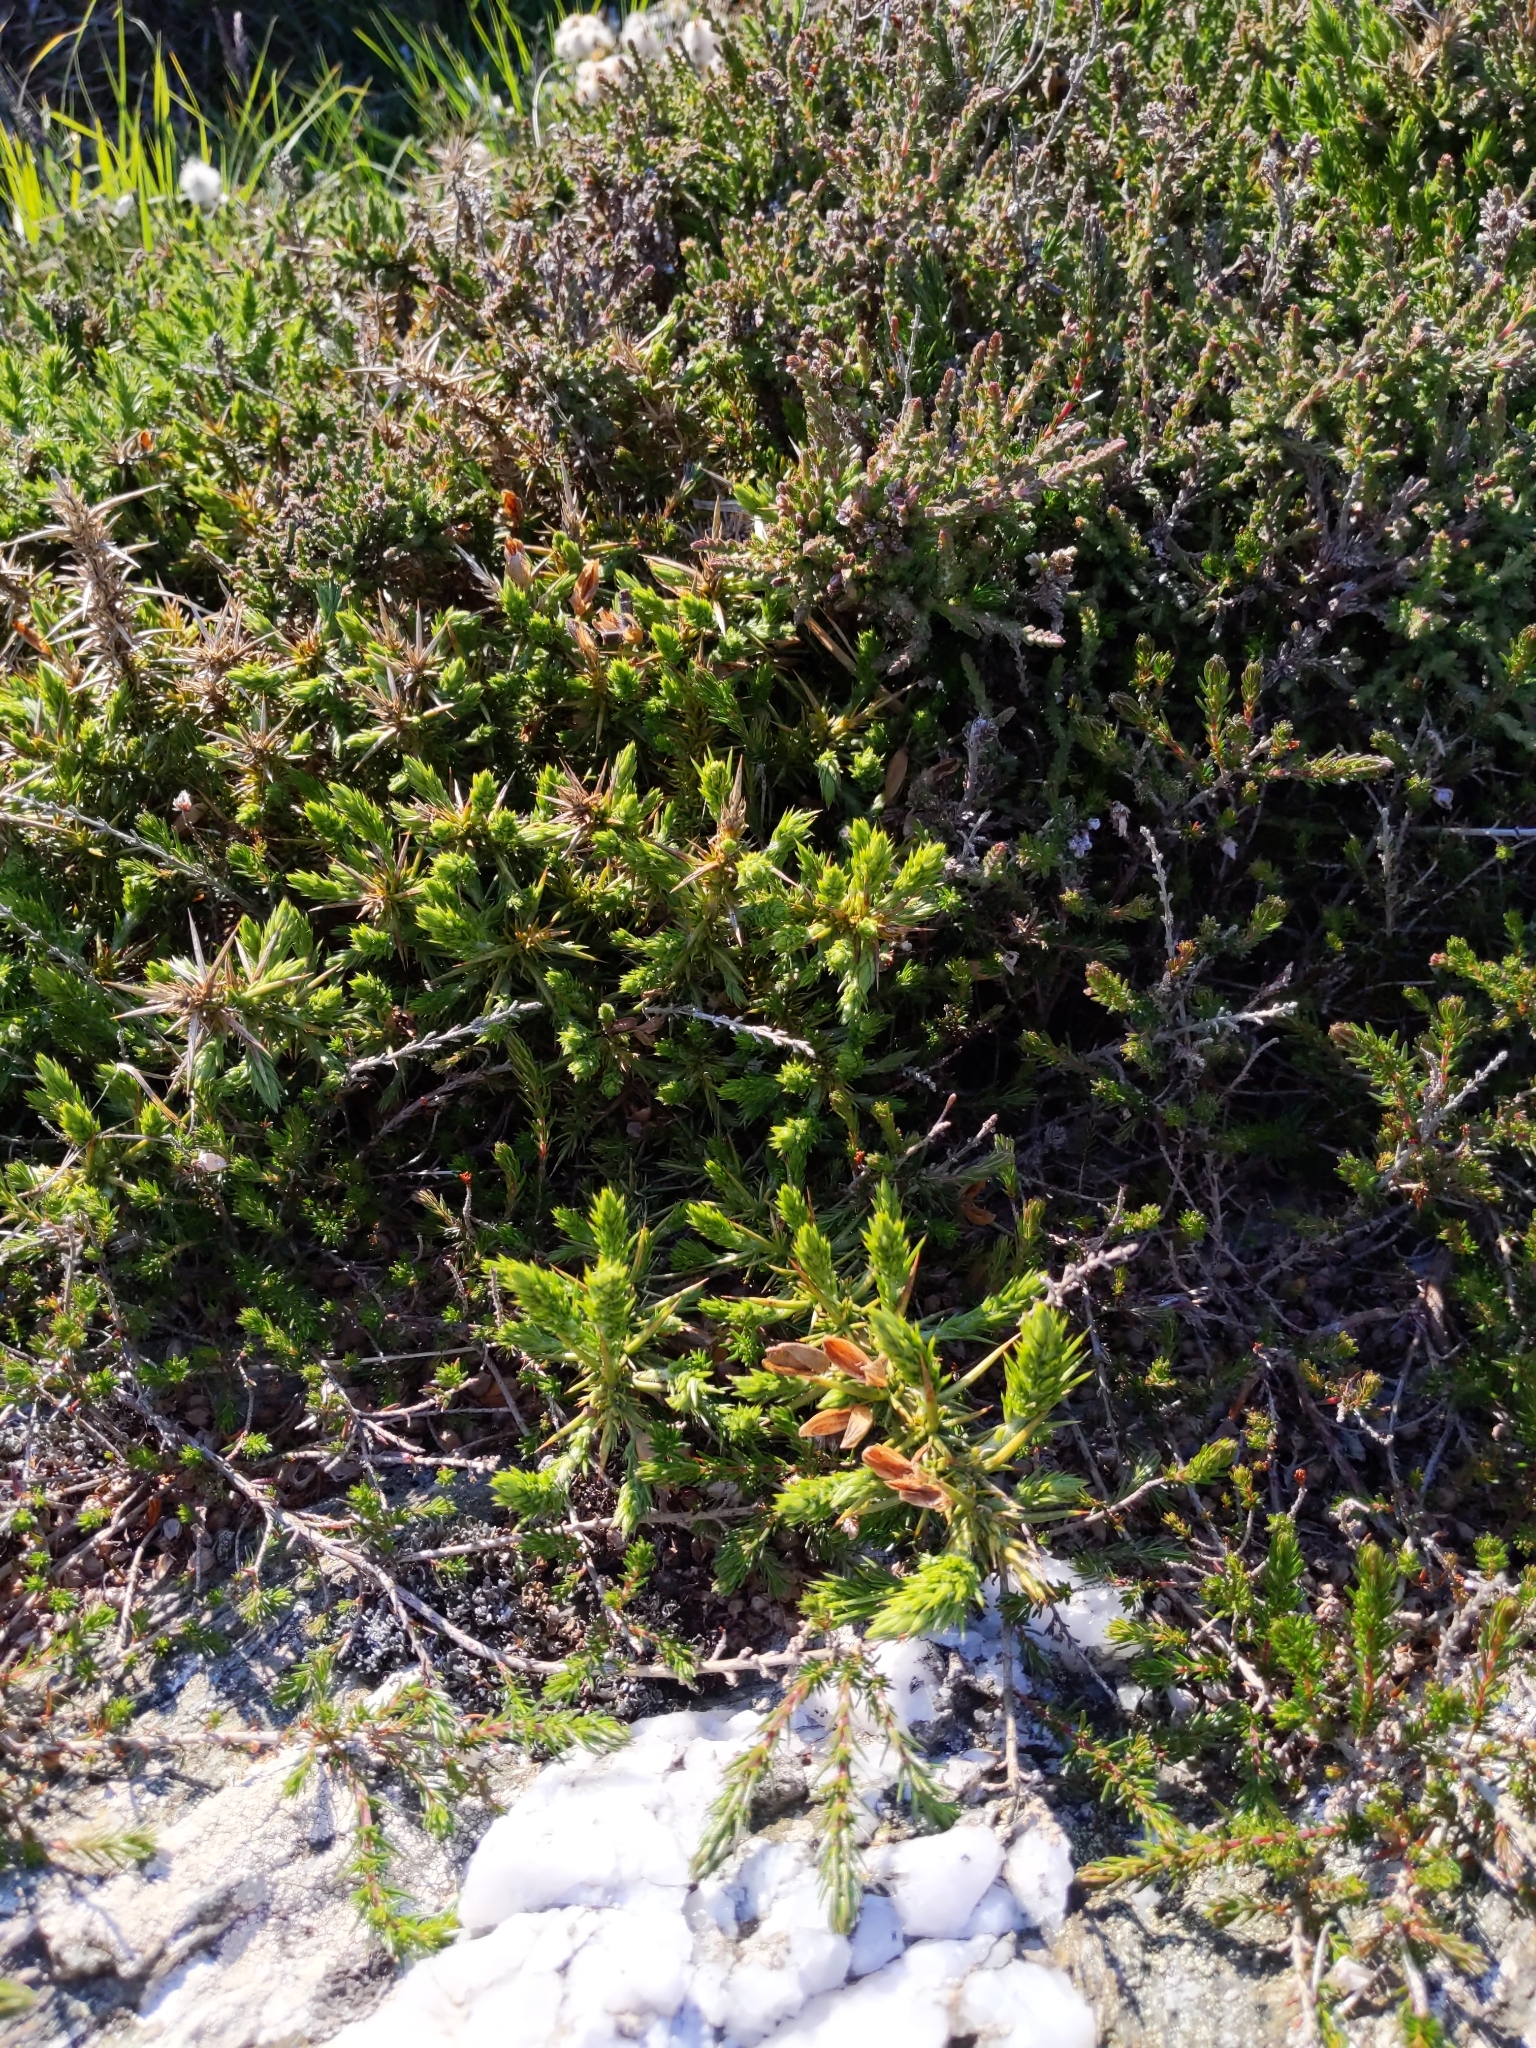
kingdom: Plantae
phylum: Tracheophyta
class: Magnoliopsida
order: Ericales
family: Ericaceae
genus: Calluna
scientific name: Calluna vulgaris
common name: Heather
